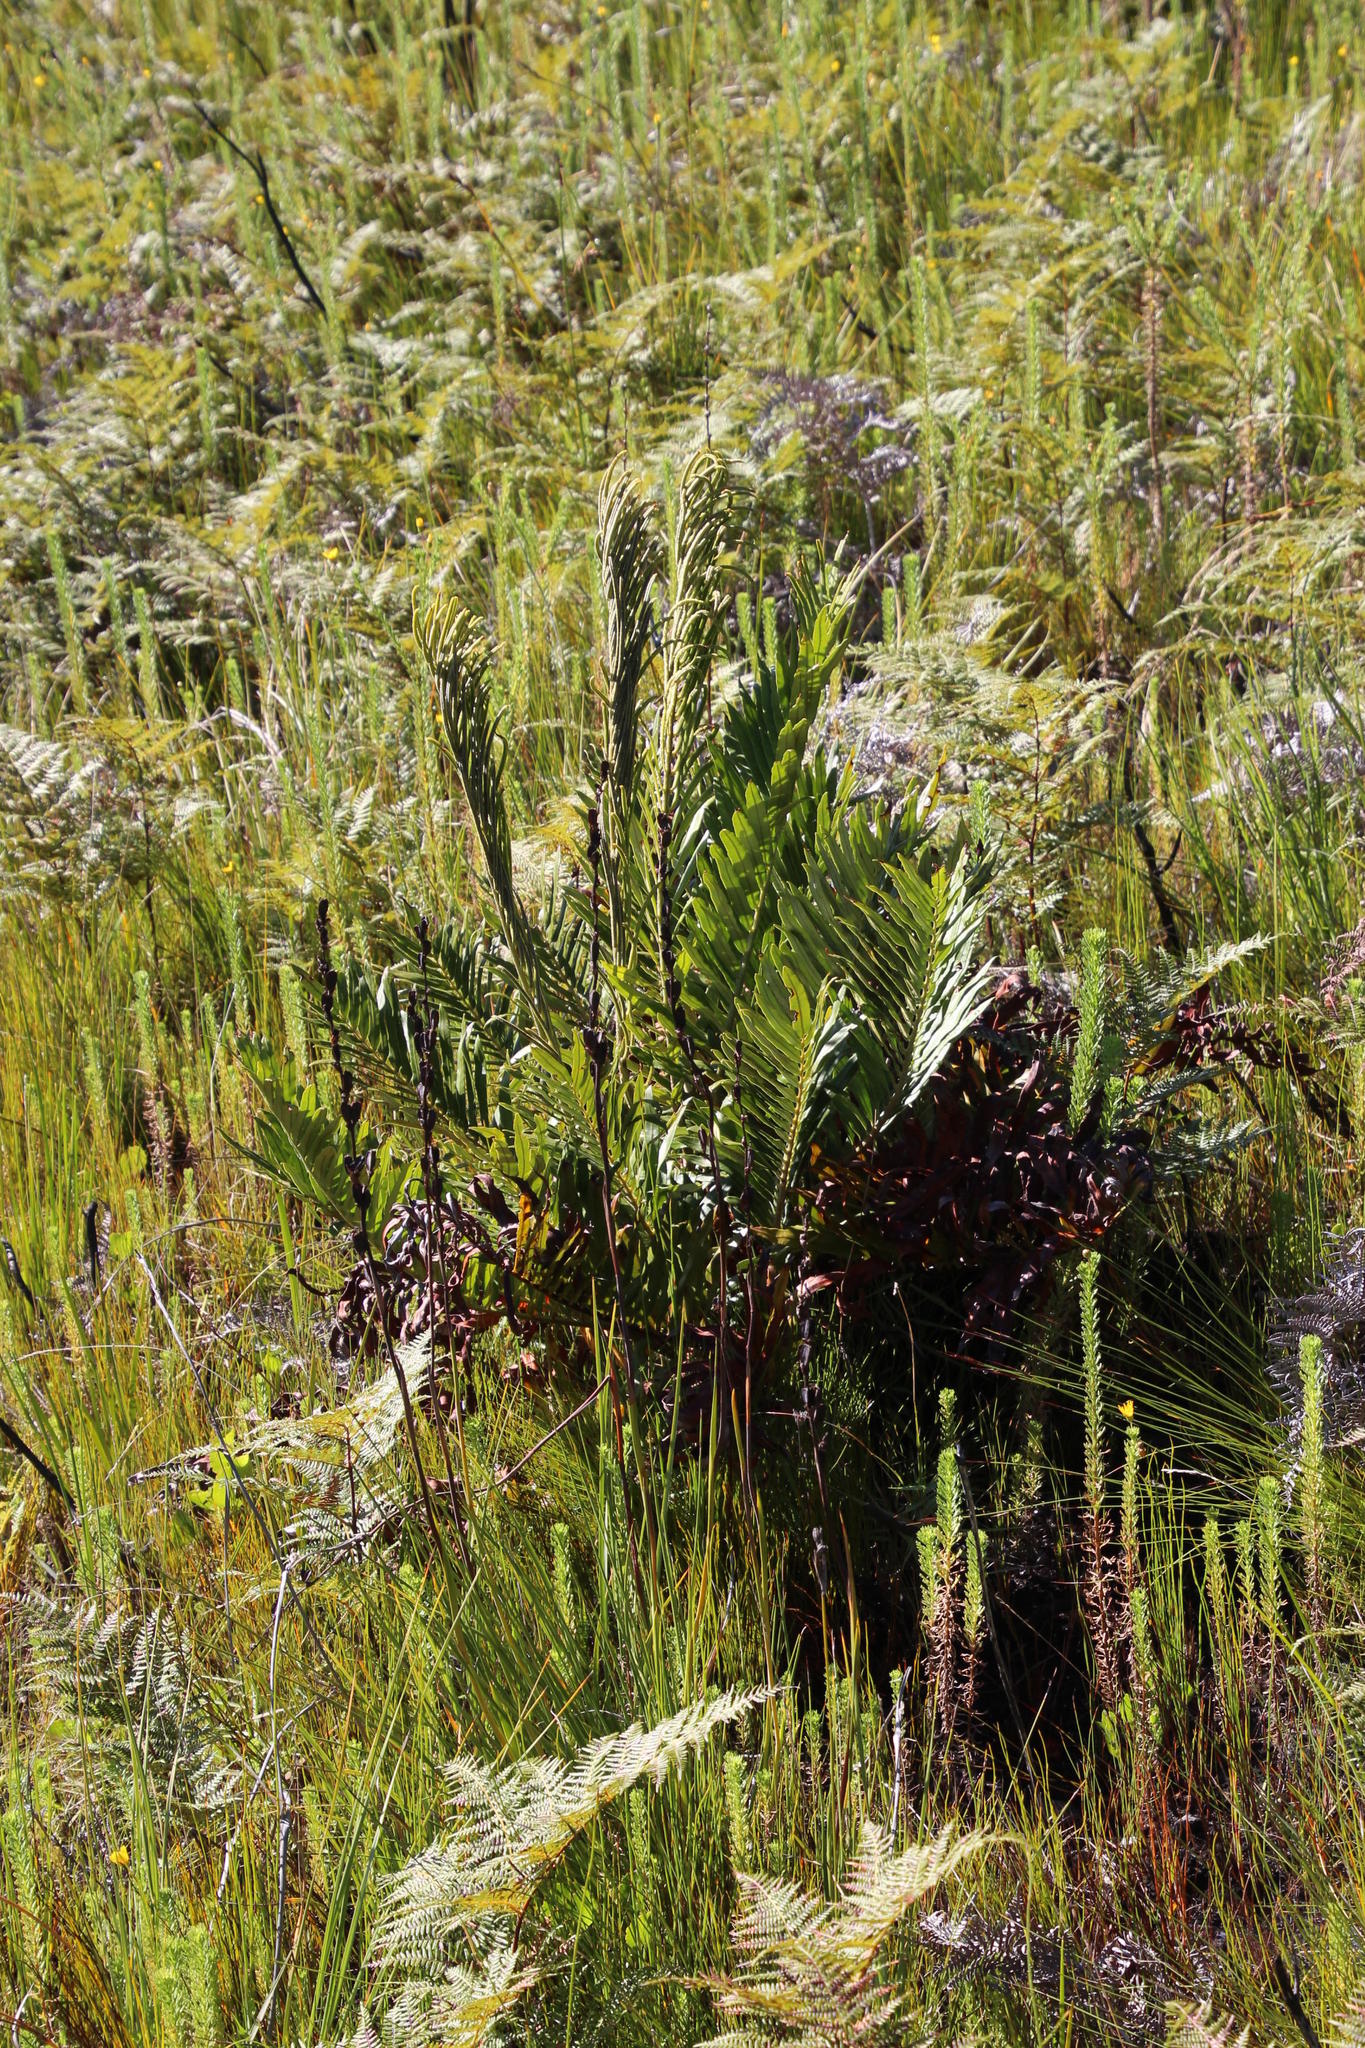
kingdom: Plantae
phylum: Tracheophyta
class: Polypodiopsida
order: Polypodiales
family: Blechnaceae
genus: Lomariocycas
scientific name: Lomariocycas tabularis
